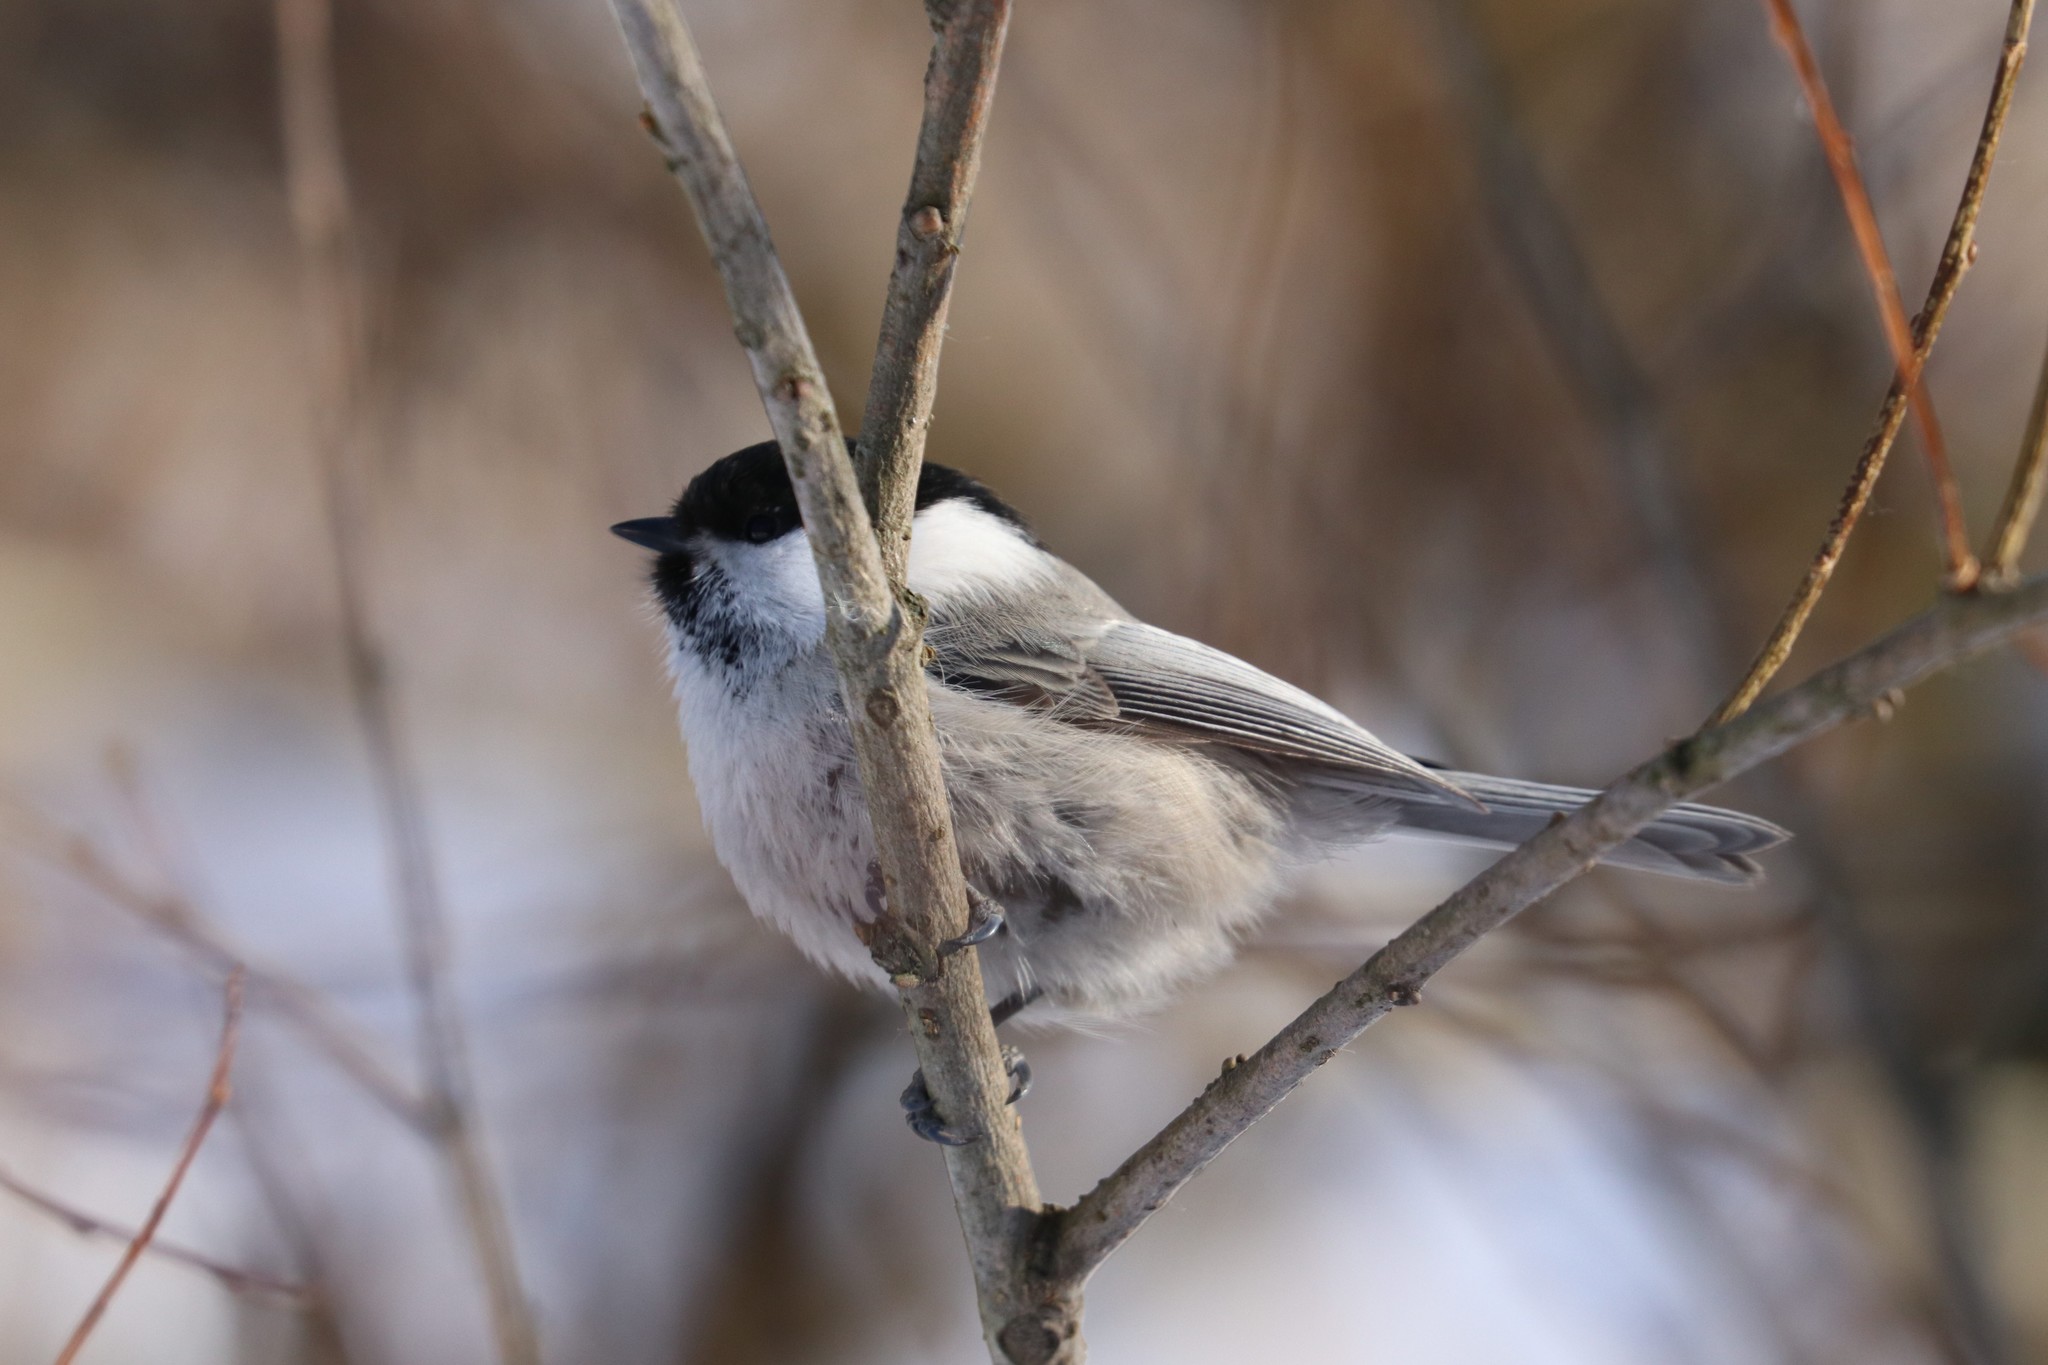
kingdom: Animalia
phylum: Chordata
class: Aves
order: Passeriformes
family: Paridae
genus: Poecile
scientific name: Poecile montanus
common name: Willow tit
